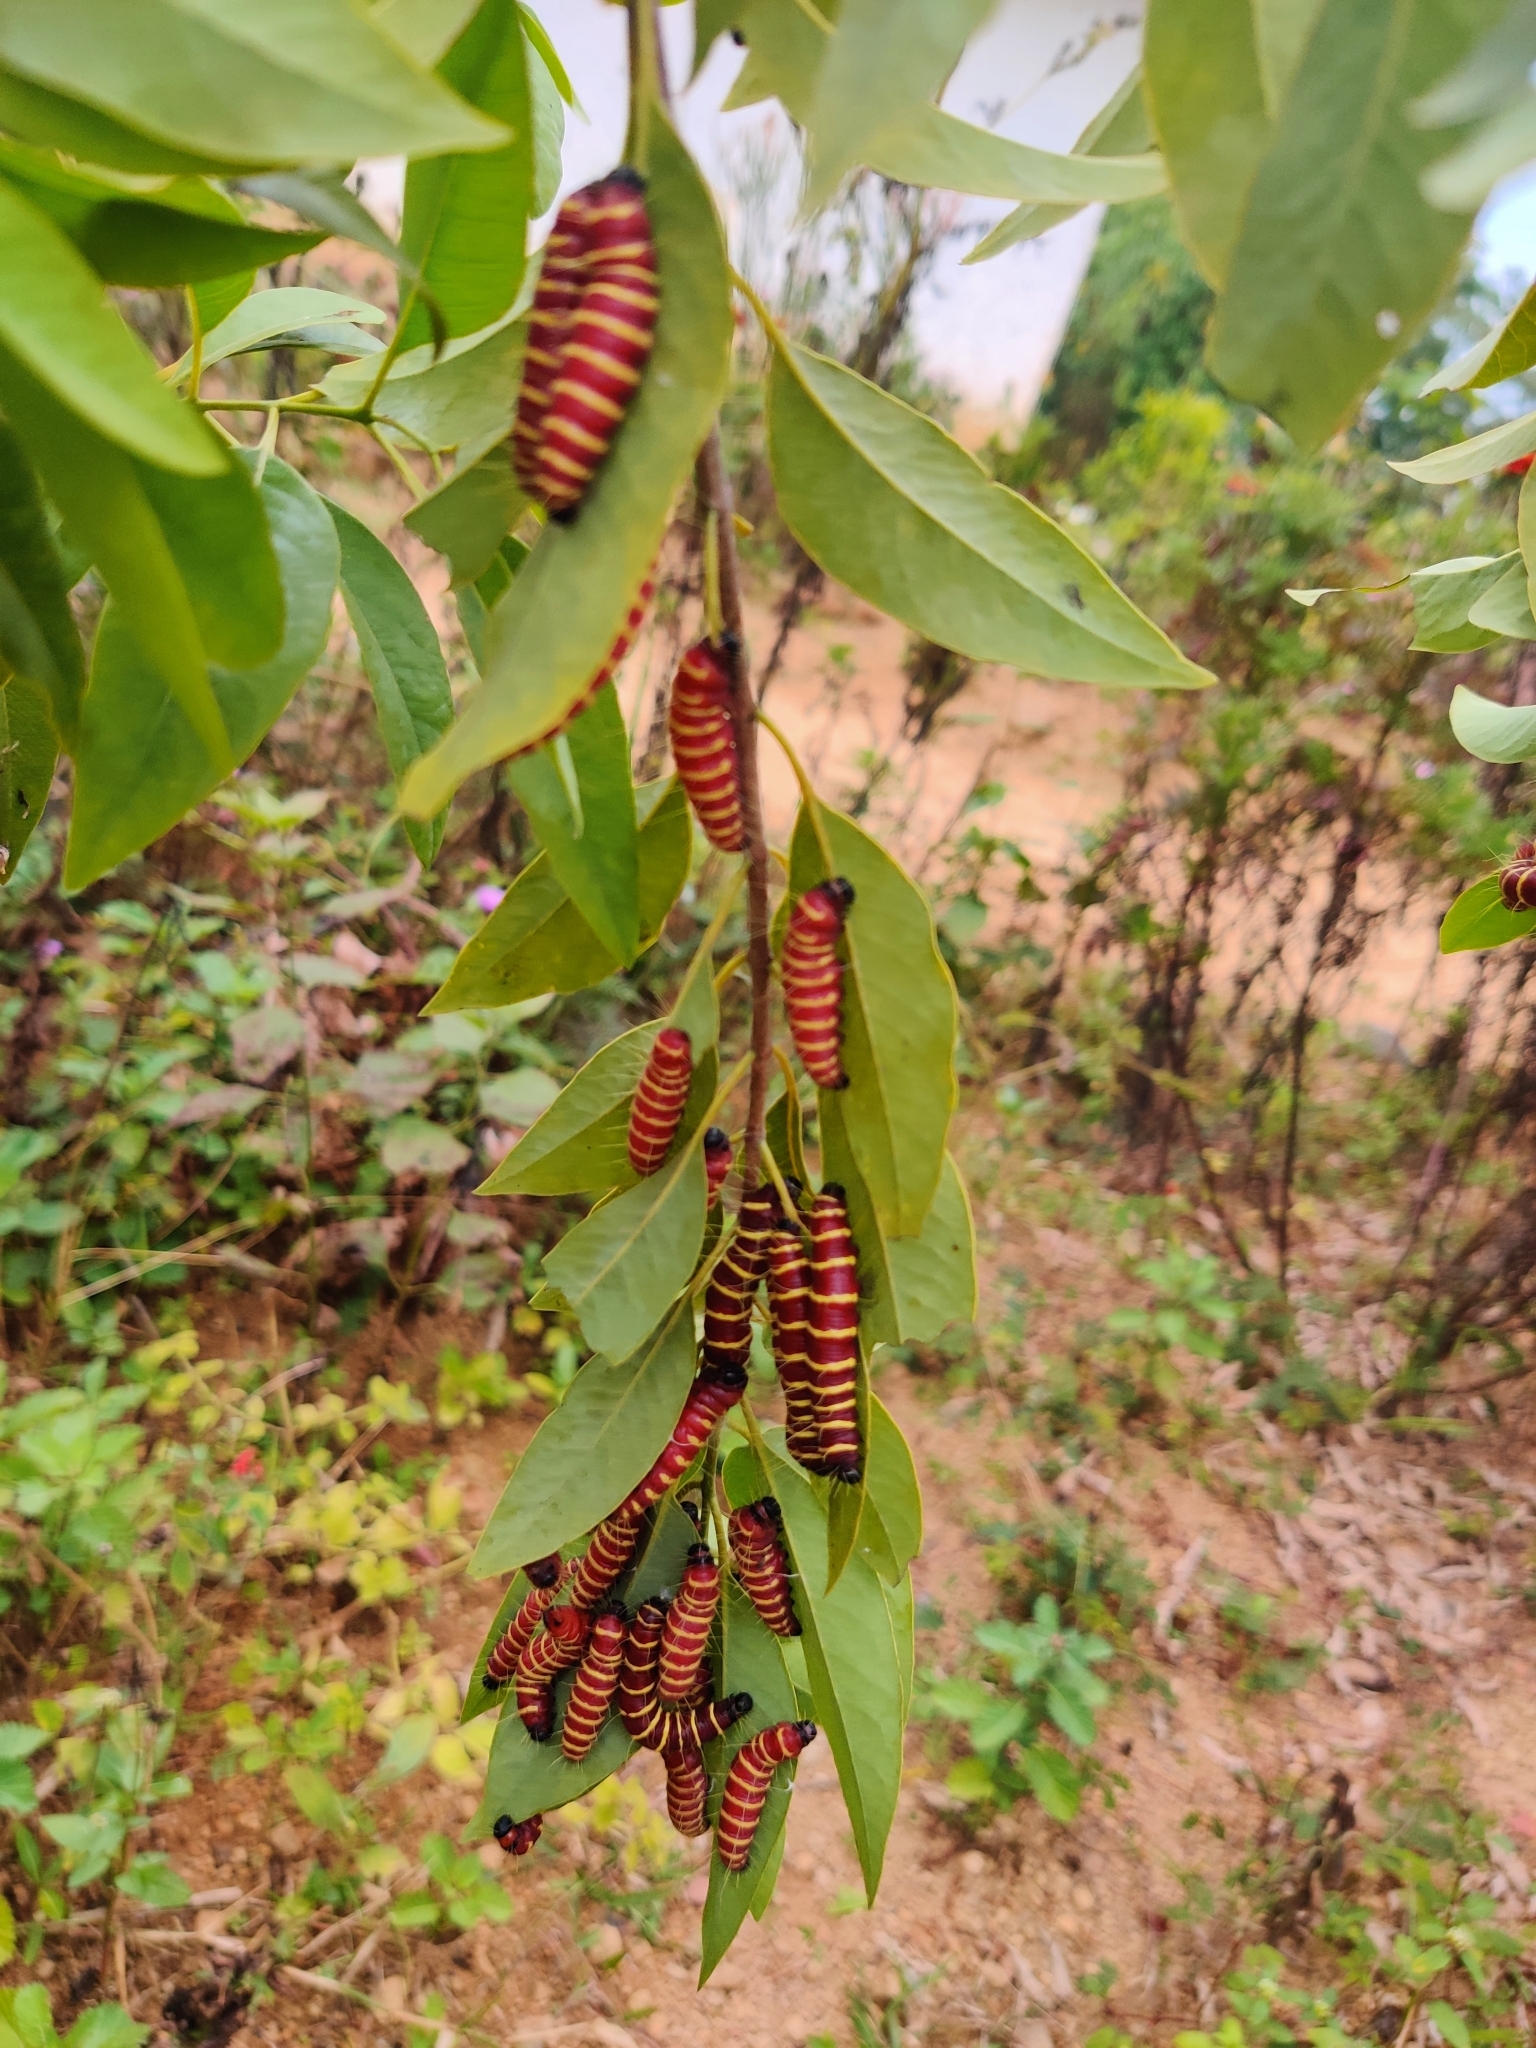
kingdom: Animalia
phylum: Arthropoda
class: Insecta
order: Lepidoptera
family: Pieridae
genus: Delias
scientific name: Delias pasithoe
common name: Red-base jezebel
